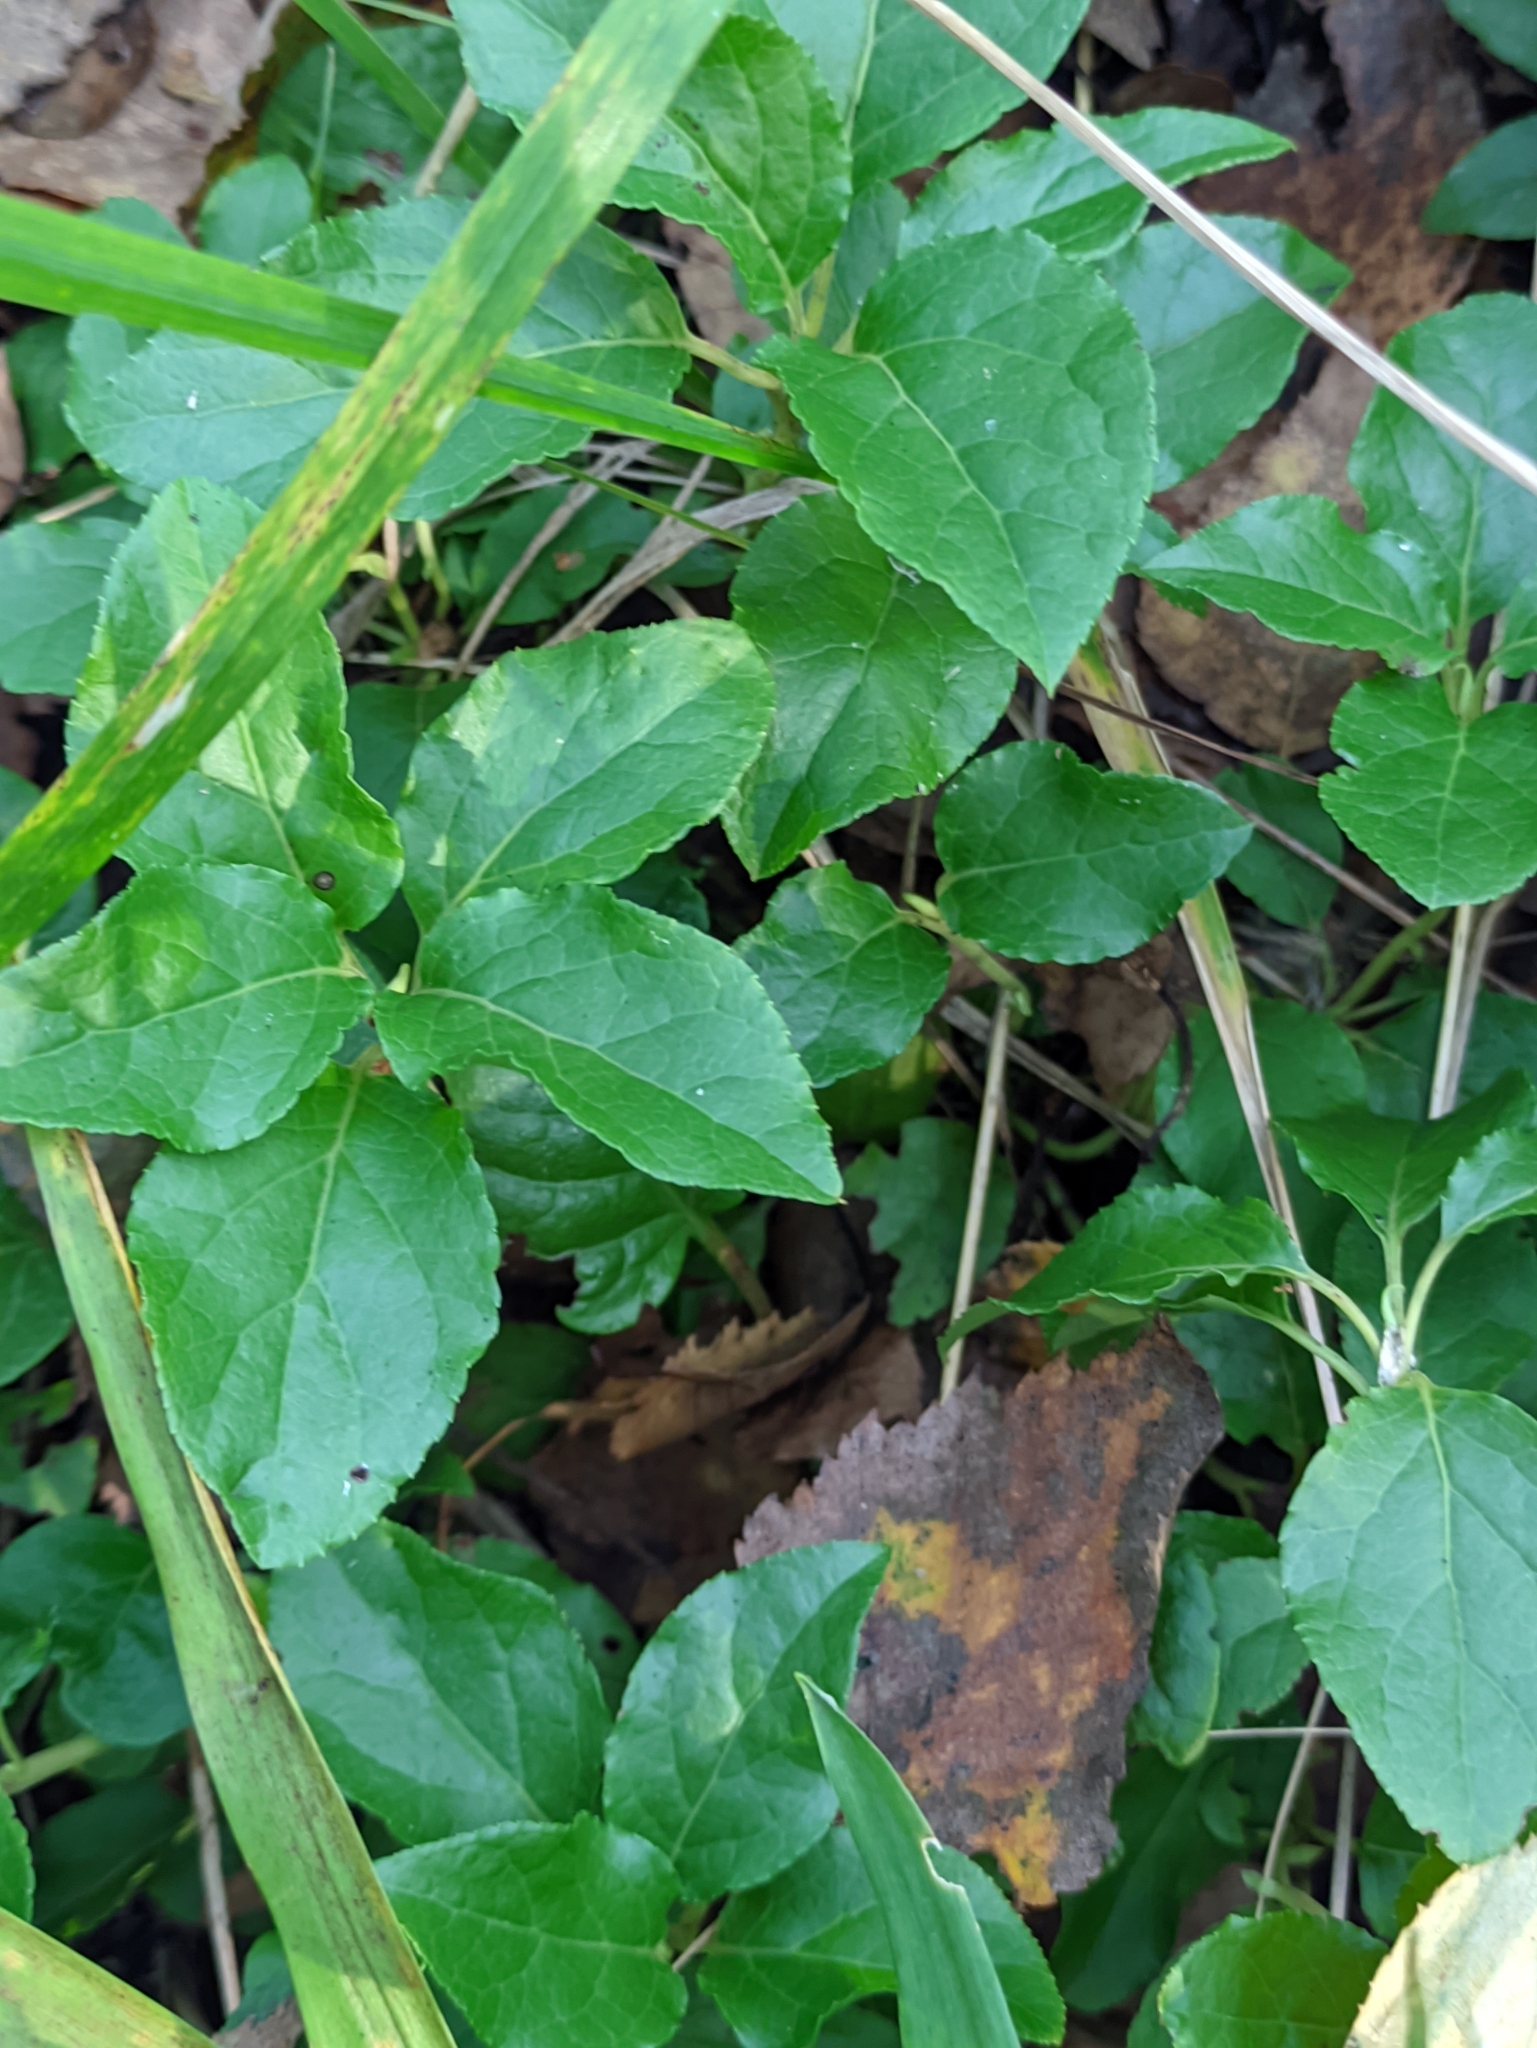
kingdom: Plantae
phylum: Tracheophyta
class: Magnoliopsida
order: Ericales
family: Ericaceae
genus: Orthilia
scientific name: Orthilia secunda
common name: One-sided orthilia
